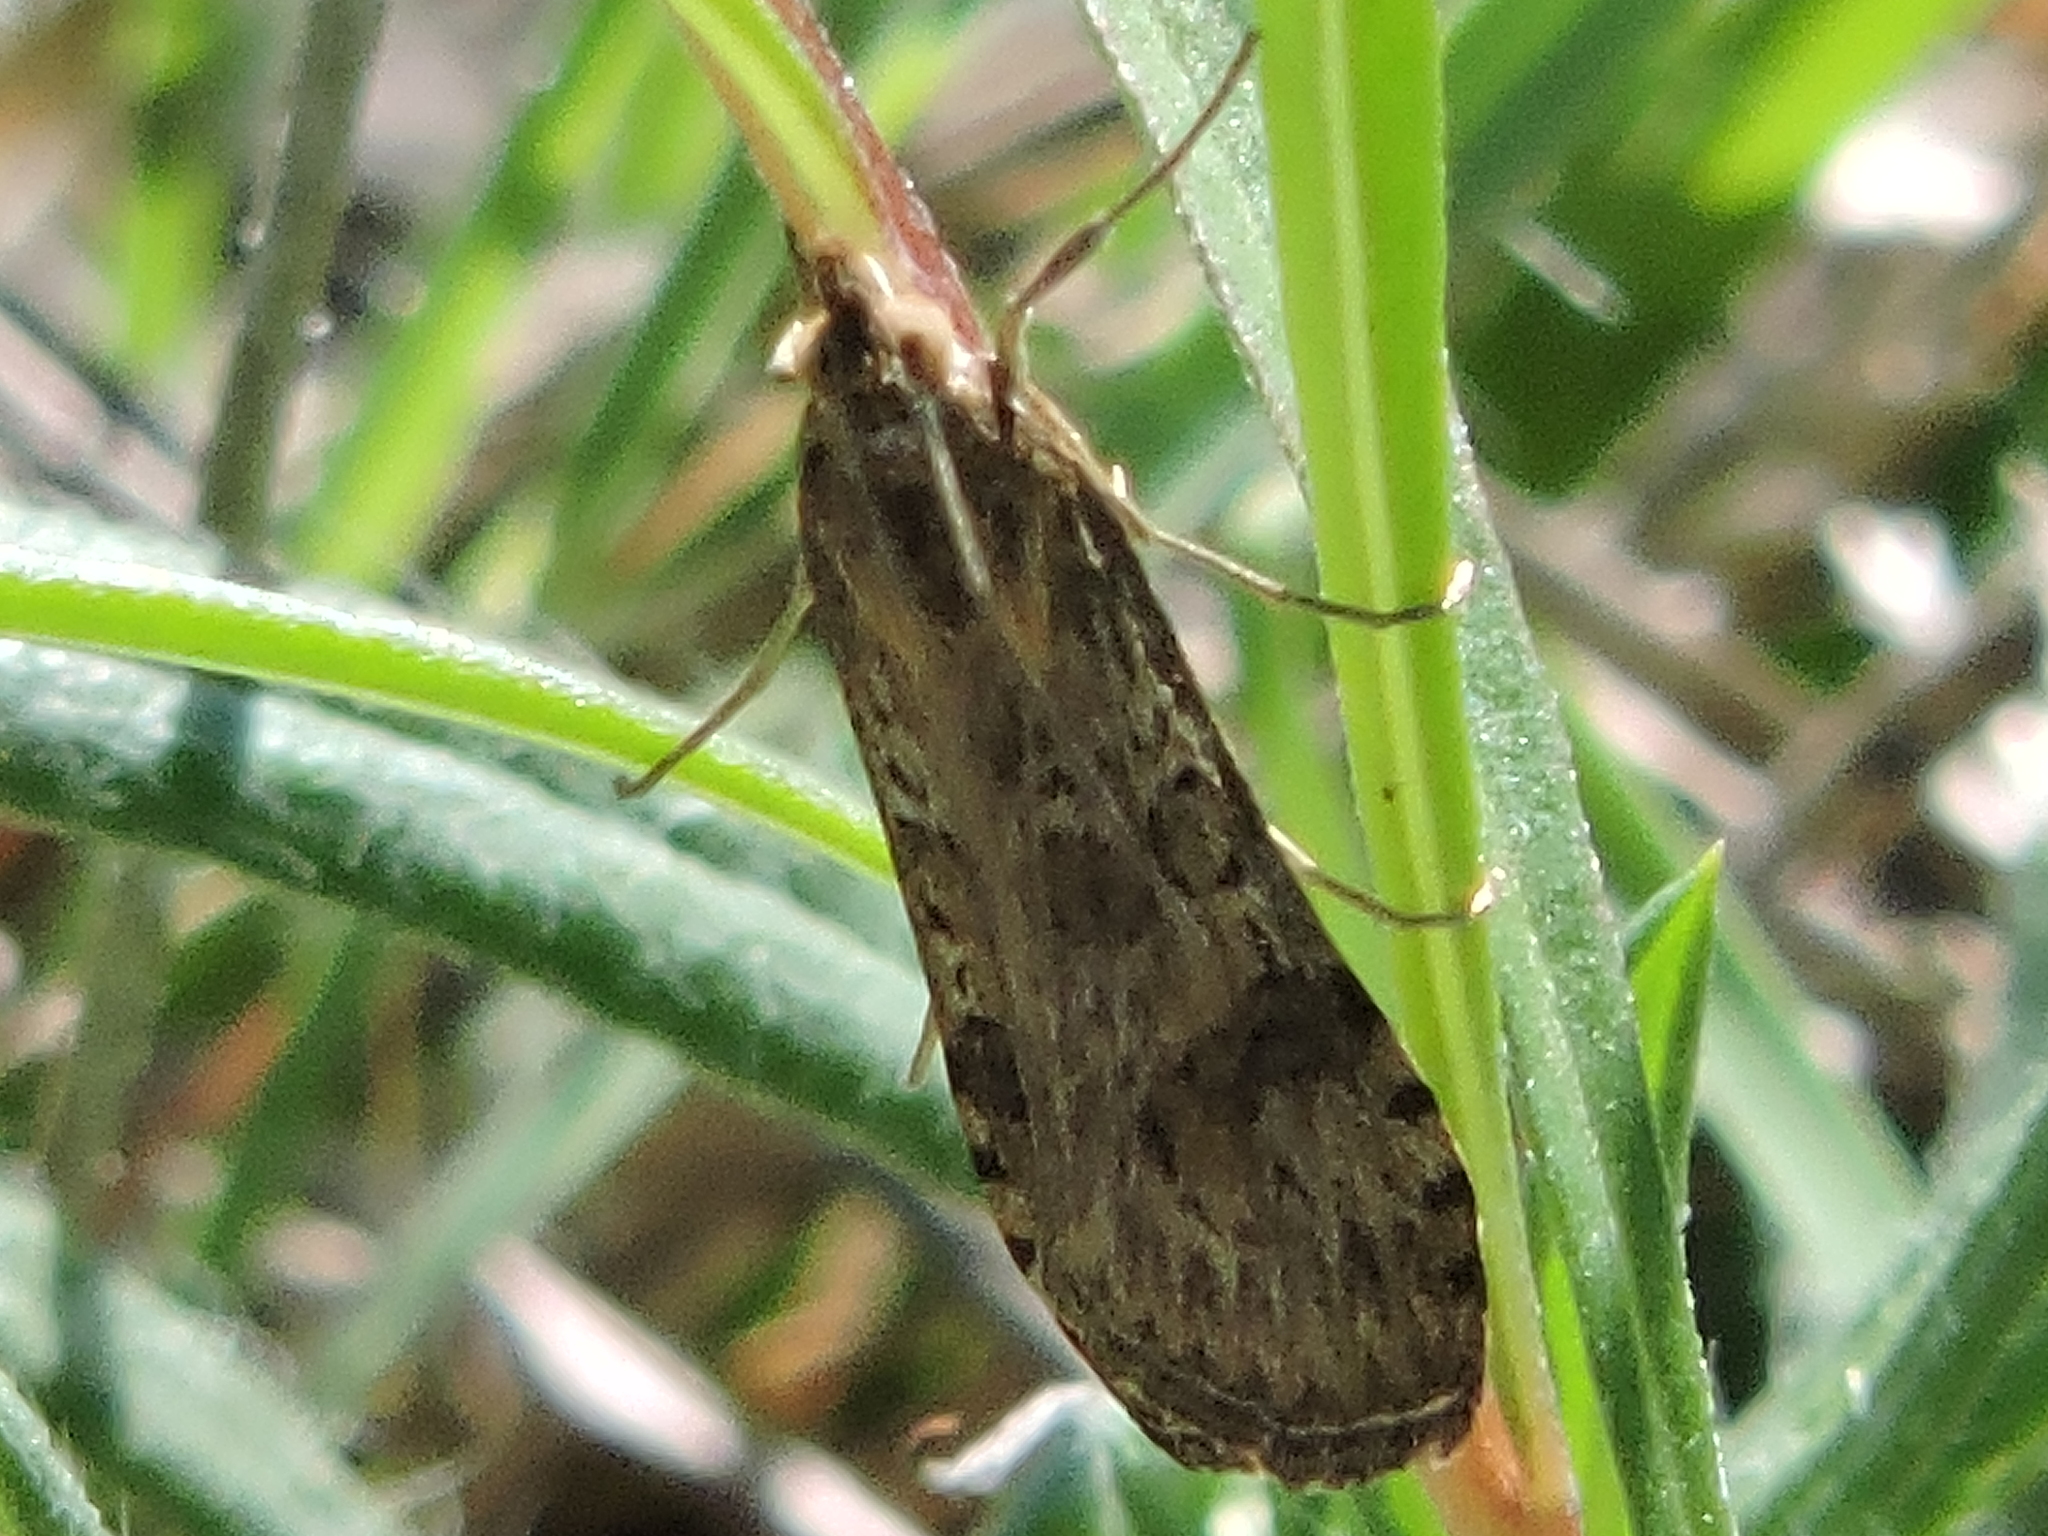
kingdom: Animalia
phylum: Arthropoda
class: Insecta
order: Lepidoptera
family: Crambidae
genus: Nomophila
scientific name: Nomophila nearctica
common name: American rush veneer
